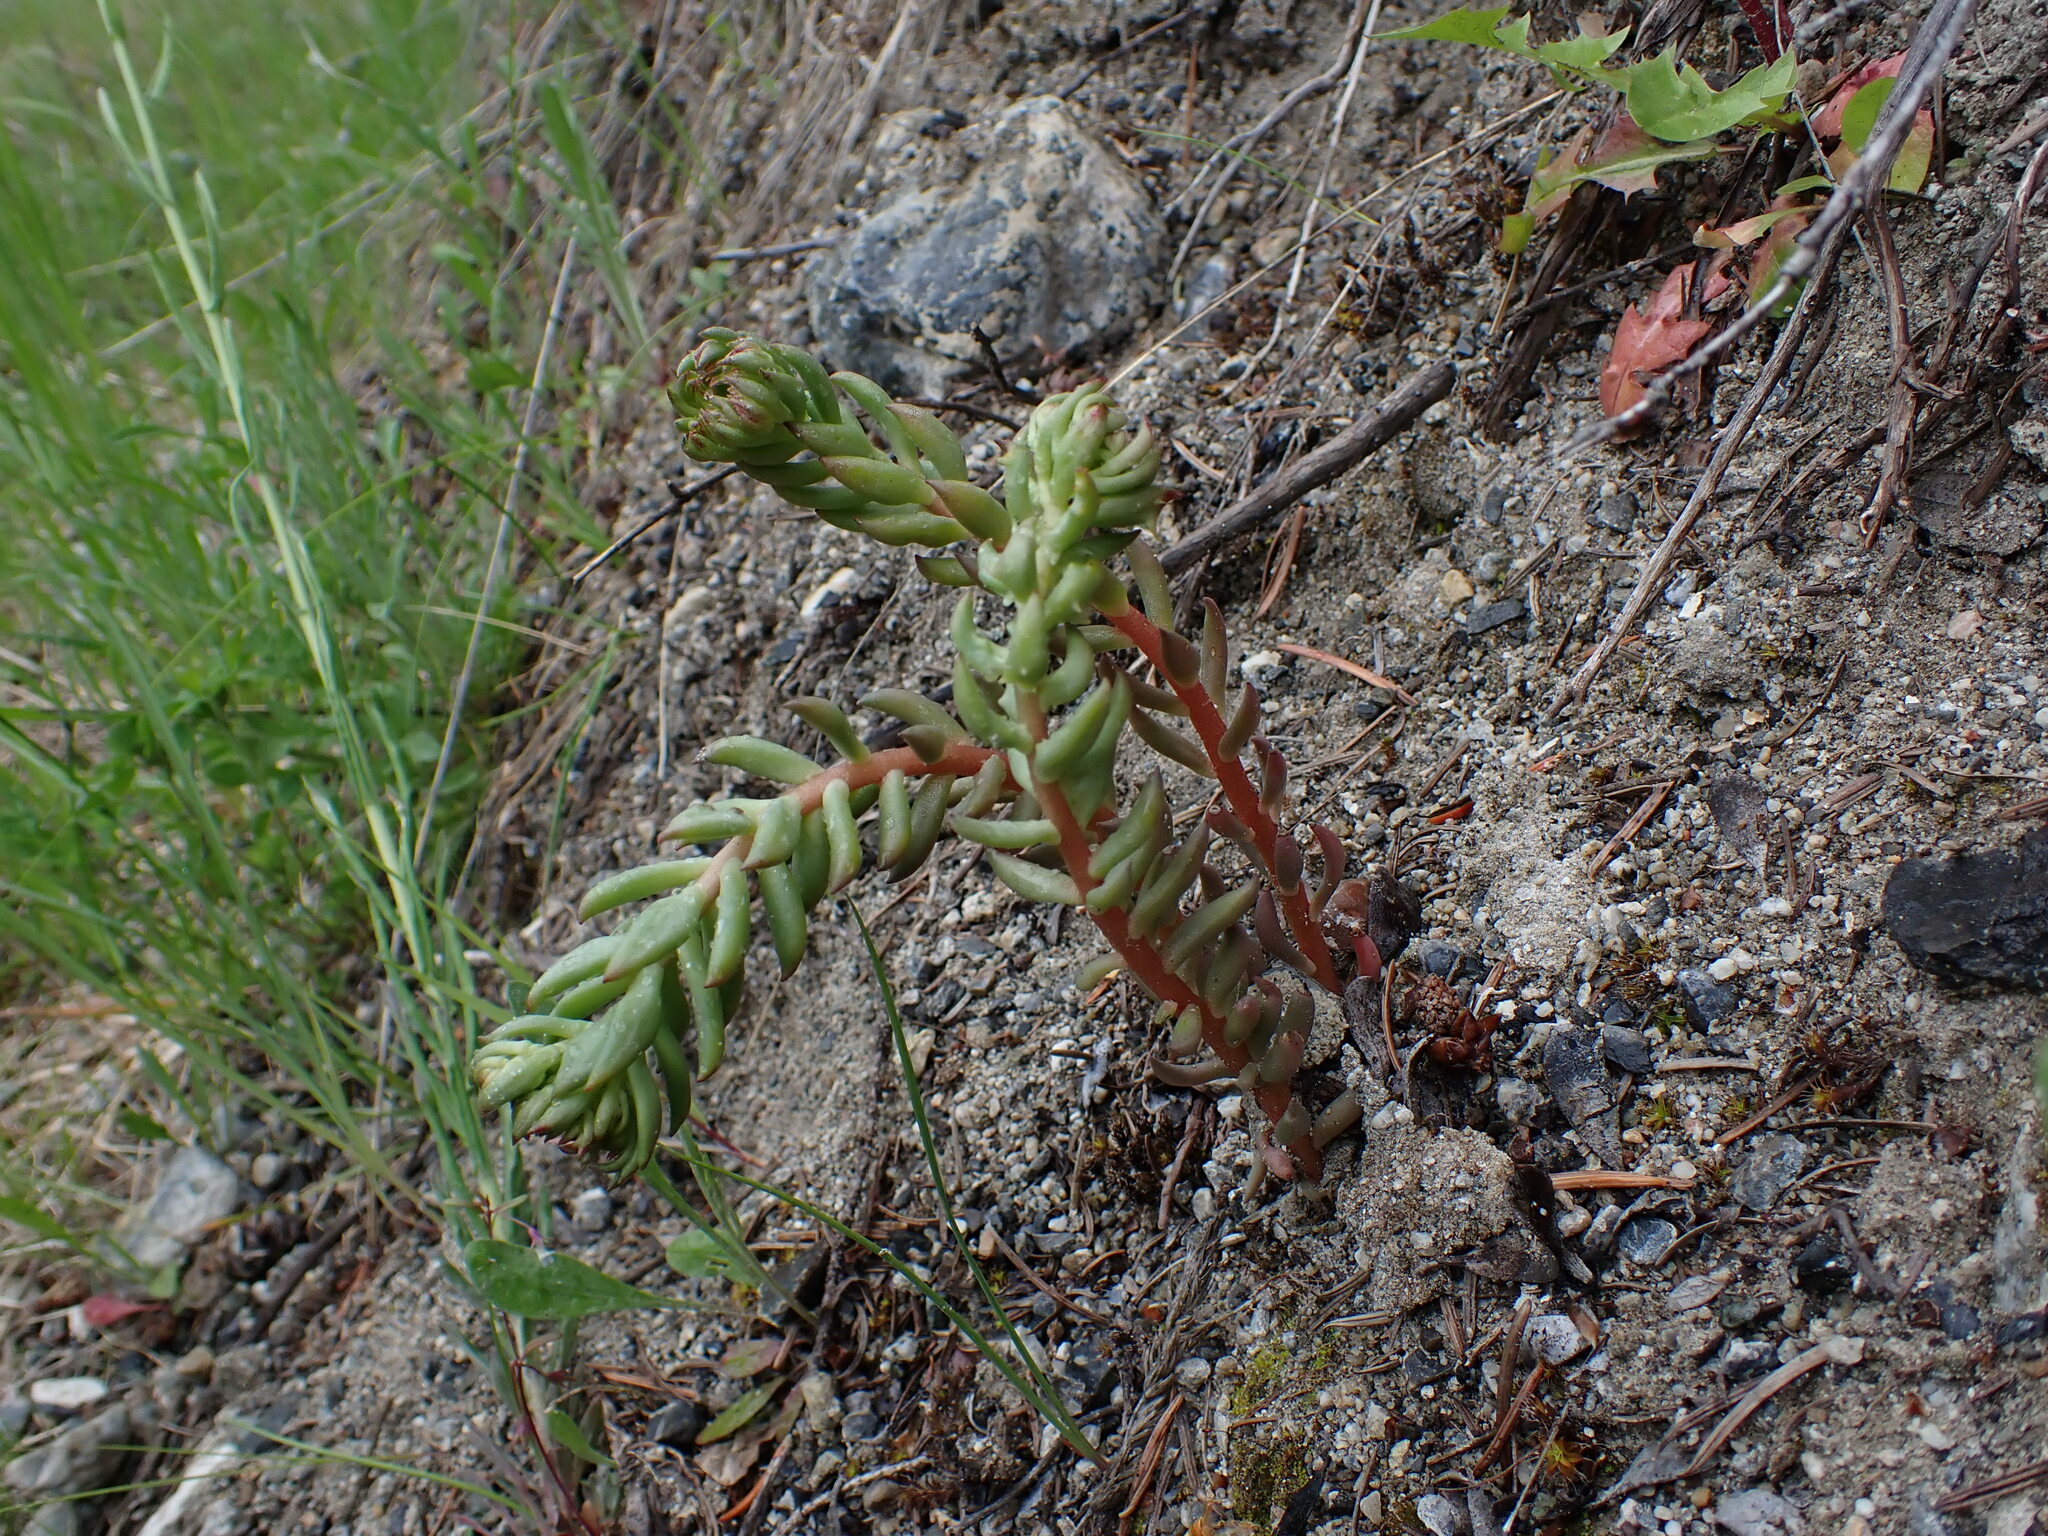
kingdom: Plantae
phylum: Tracheophyta
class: Magnoliopsida
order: Saxifragales
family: Crassulaceae
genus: Sedum
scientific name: Sedum lanceolatum
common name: Common stonecrop
